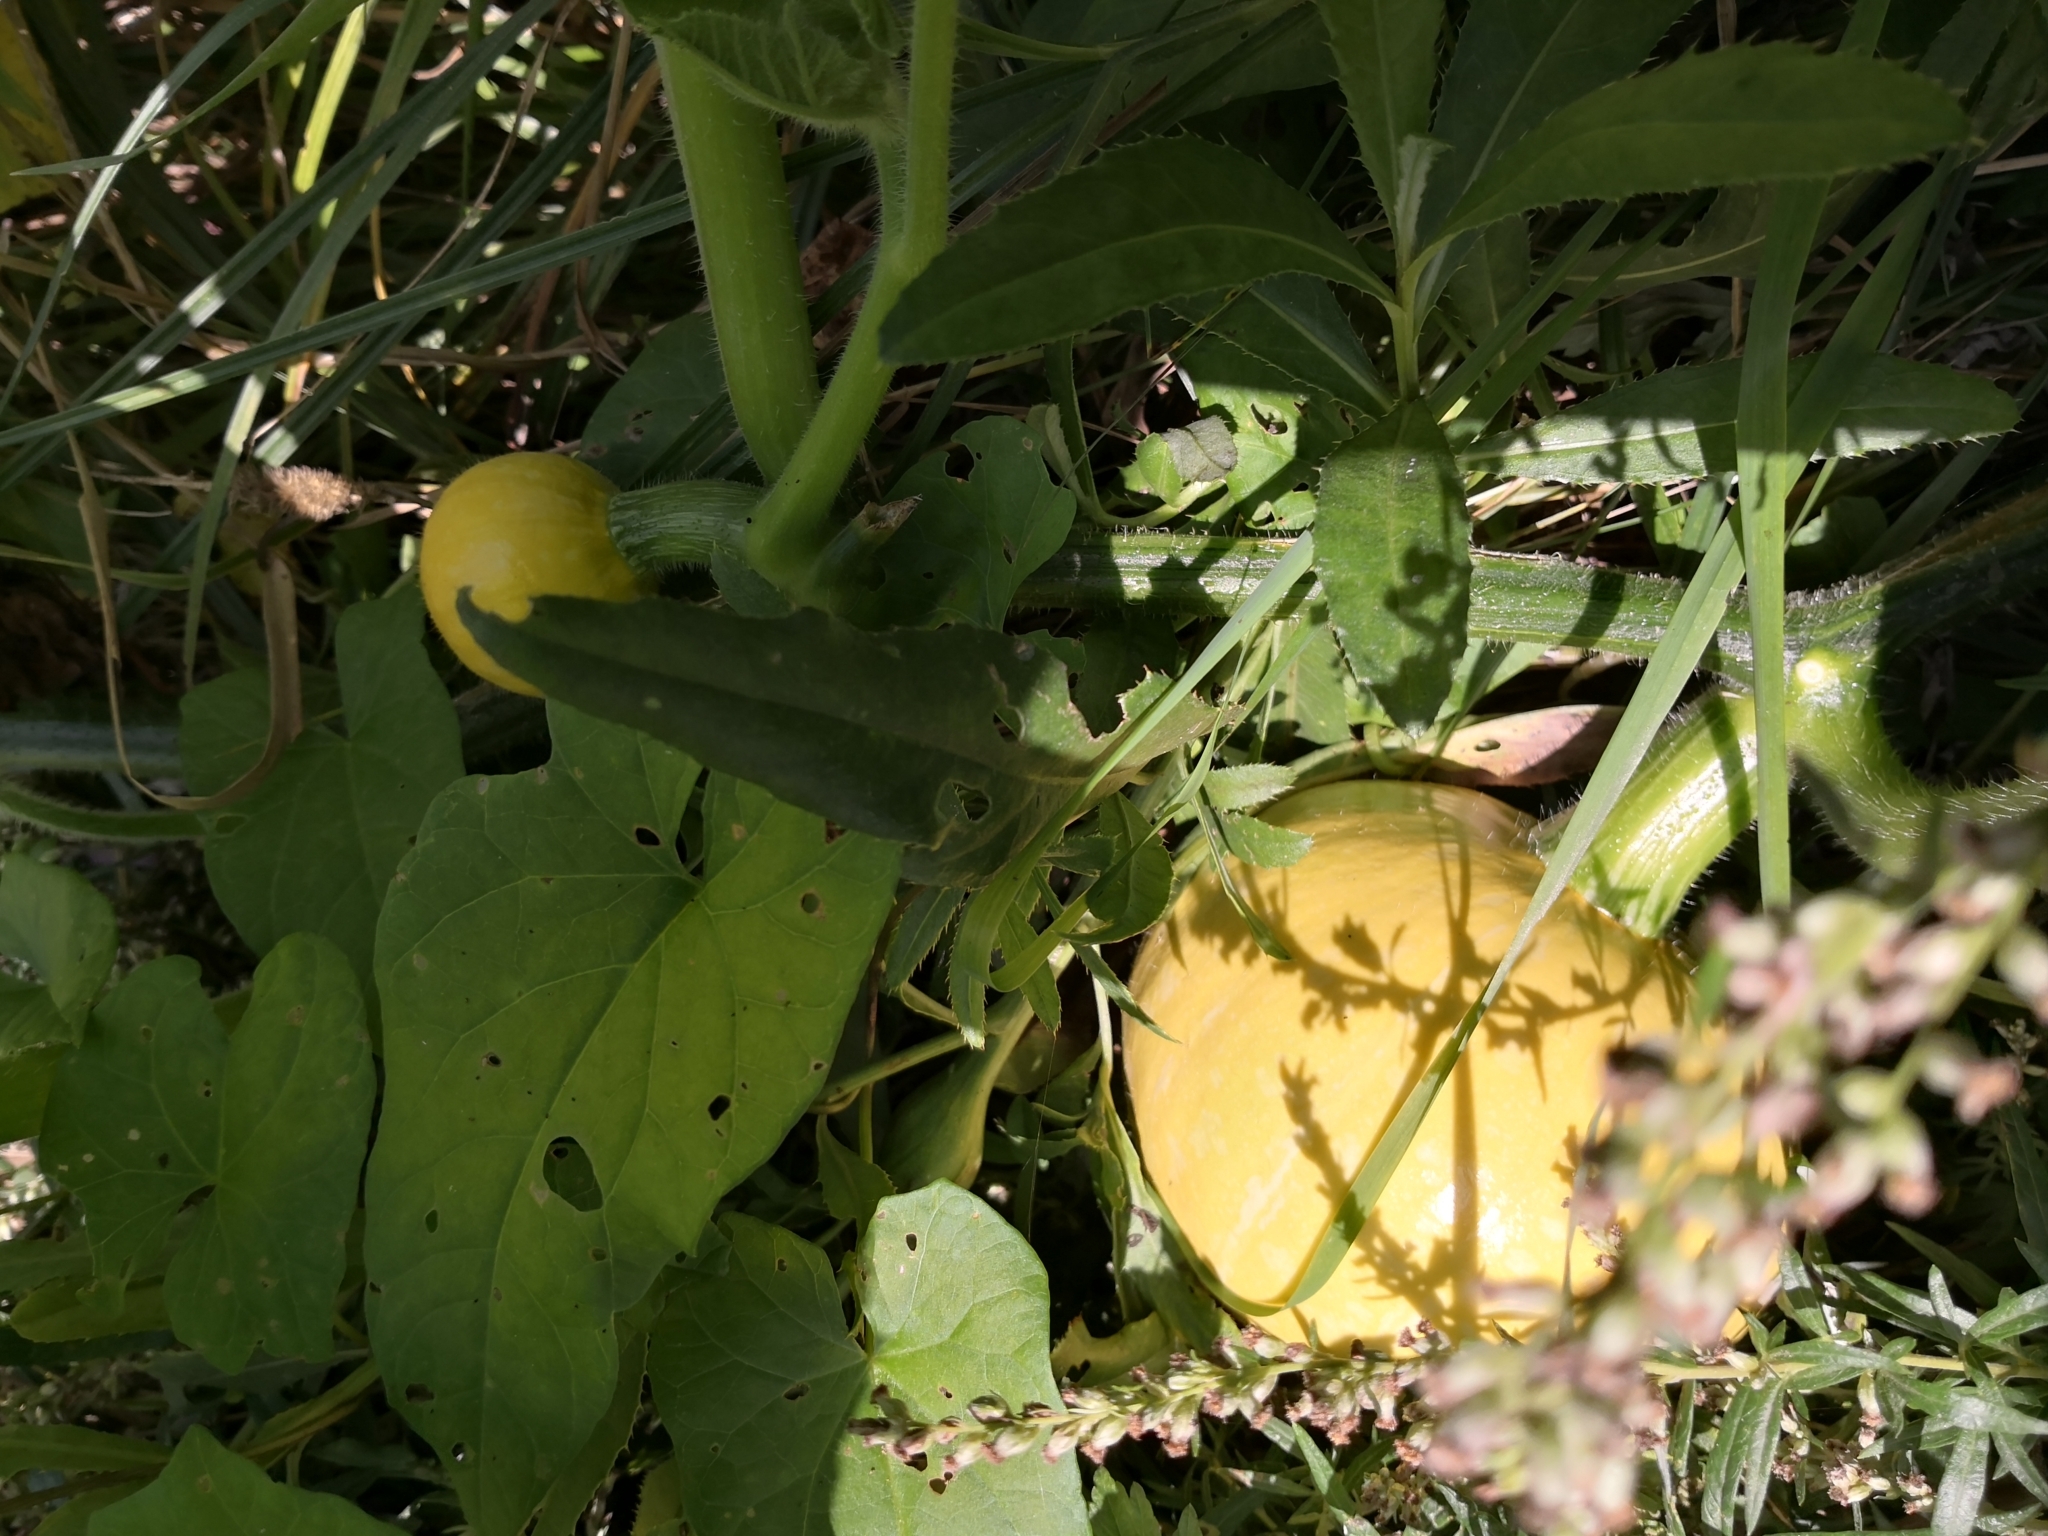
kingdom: Plantae
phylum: Tracheophyta
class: Magnoliopsida
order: Cucurbitales
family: Cucurbitaceae
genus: Cucurbita
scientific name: Cucurbita pepo
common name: Marrow
